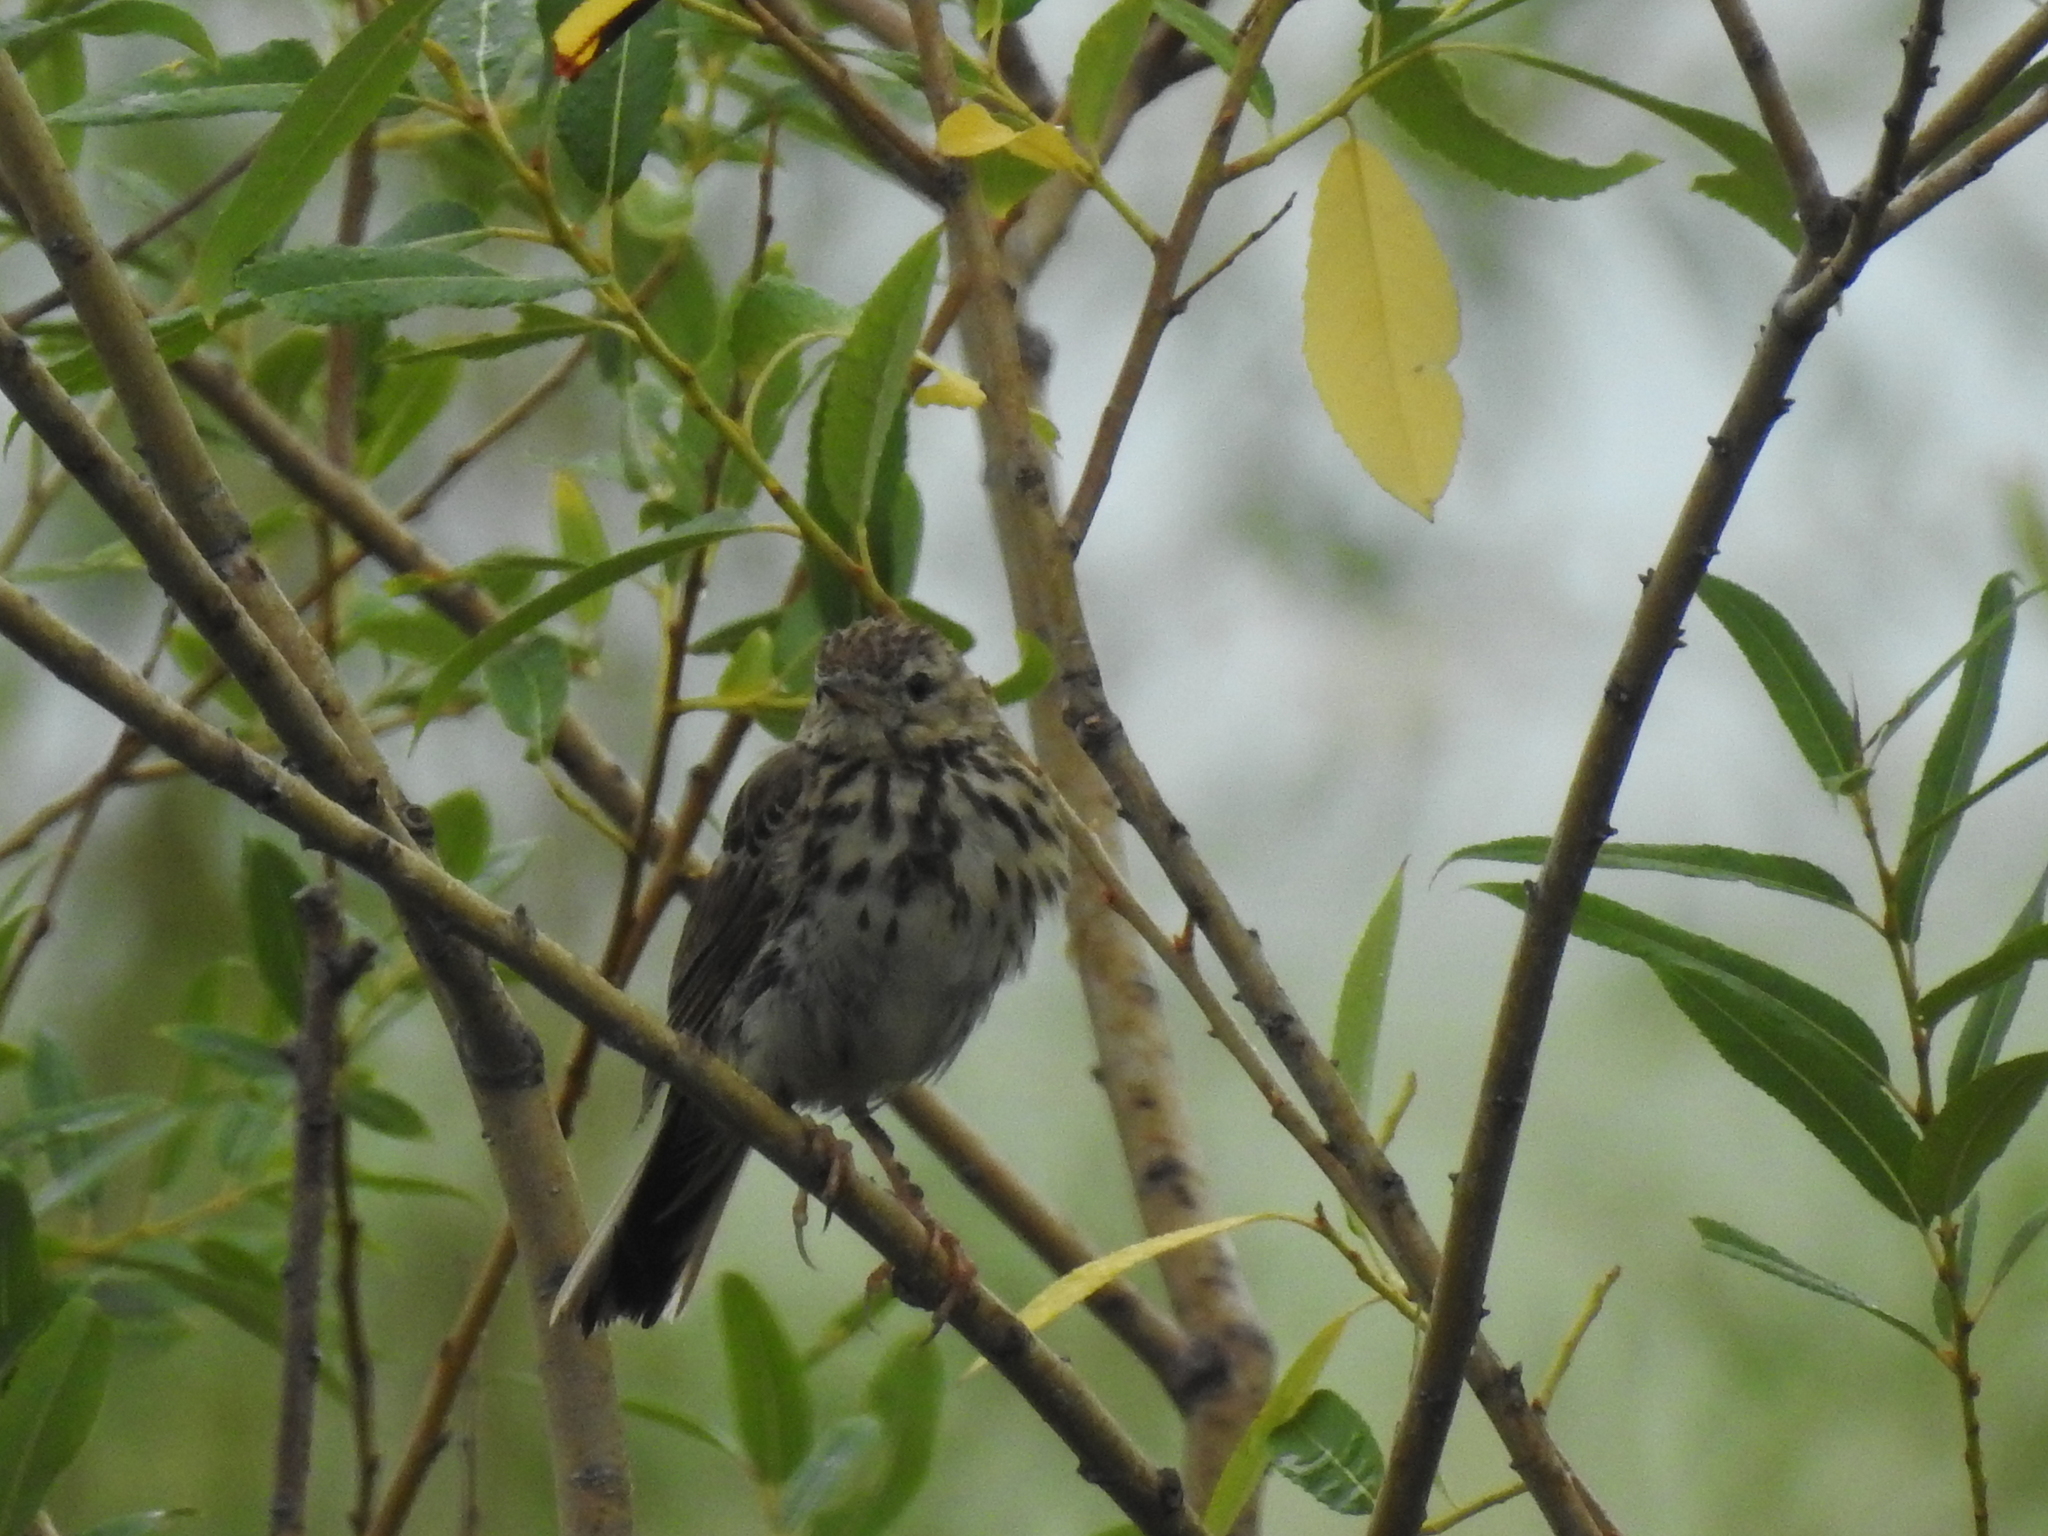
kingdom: Animalia
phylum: Chordata
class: Aves
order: Passeriformes
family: Motacillidae
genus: Anthus
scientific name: Anthus trivialis
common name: Tree pipit
